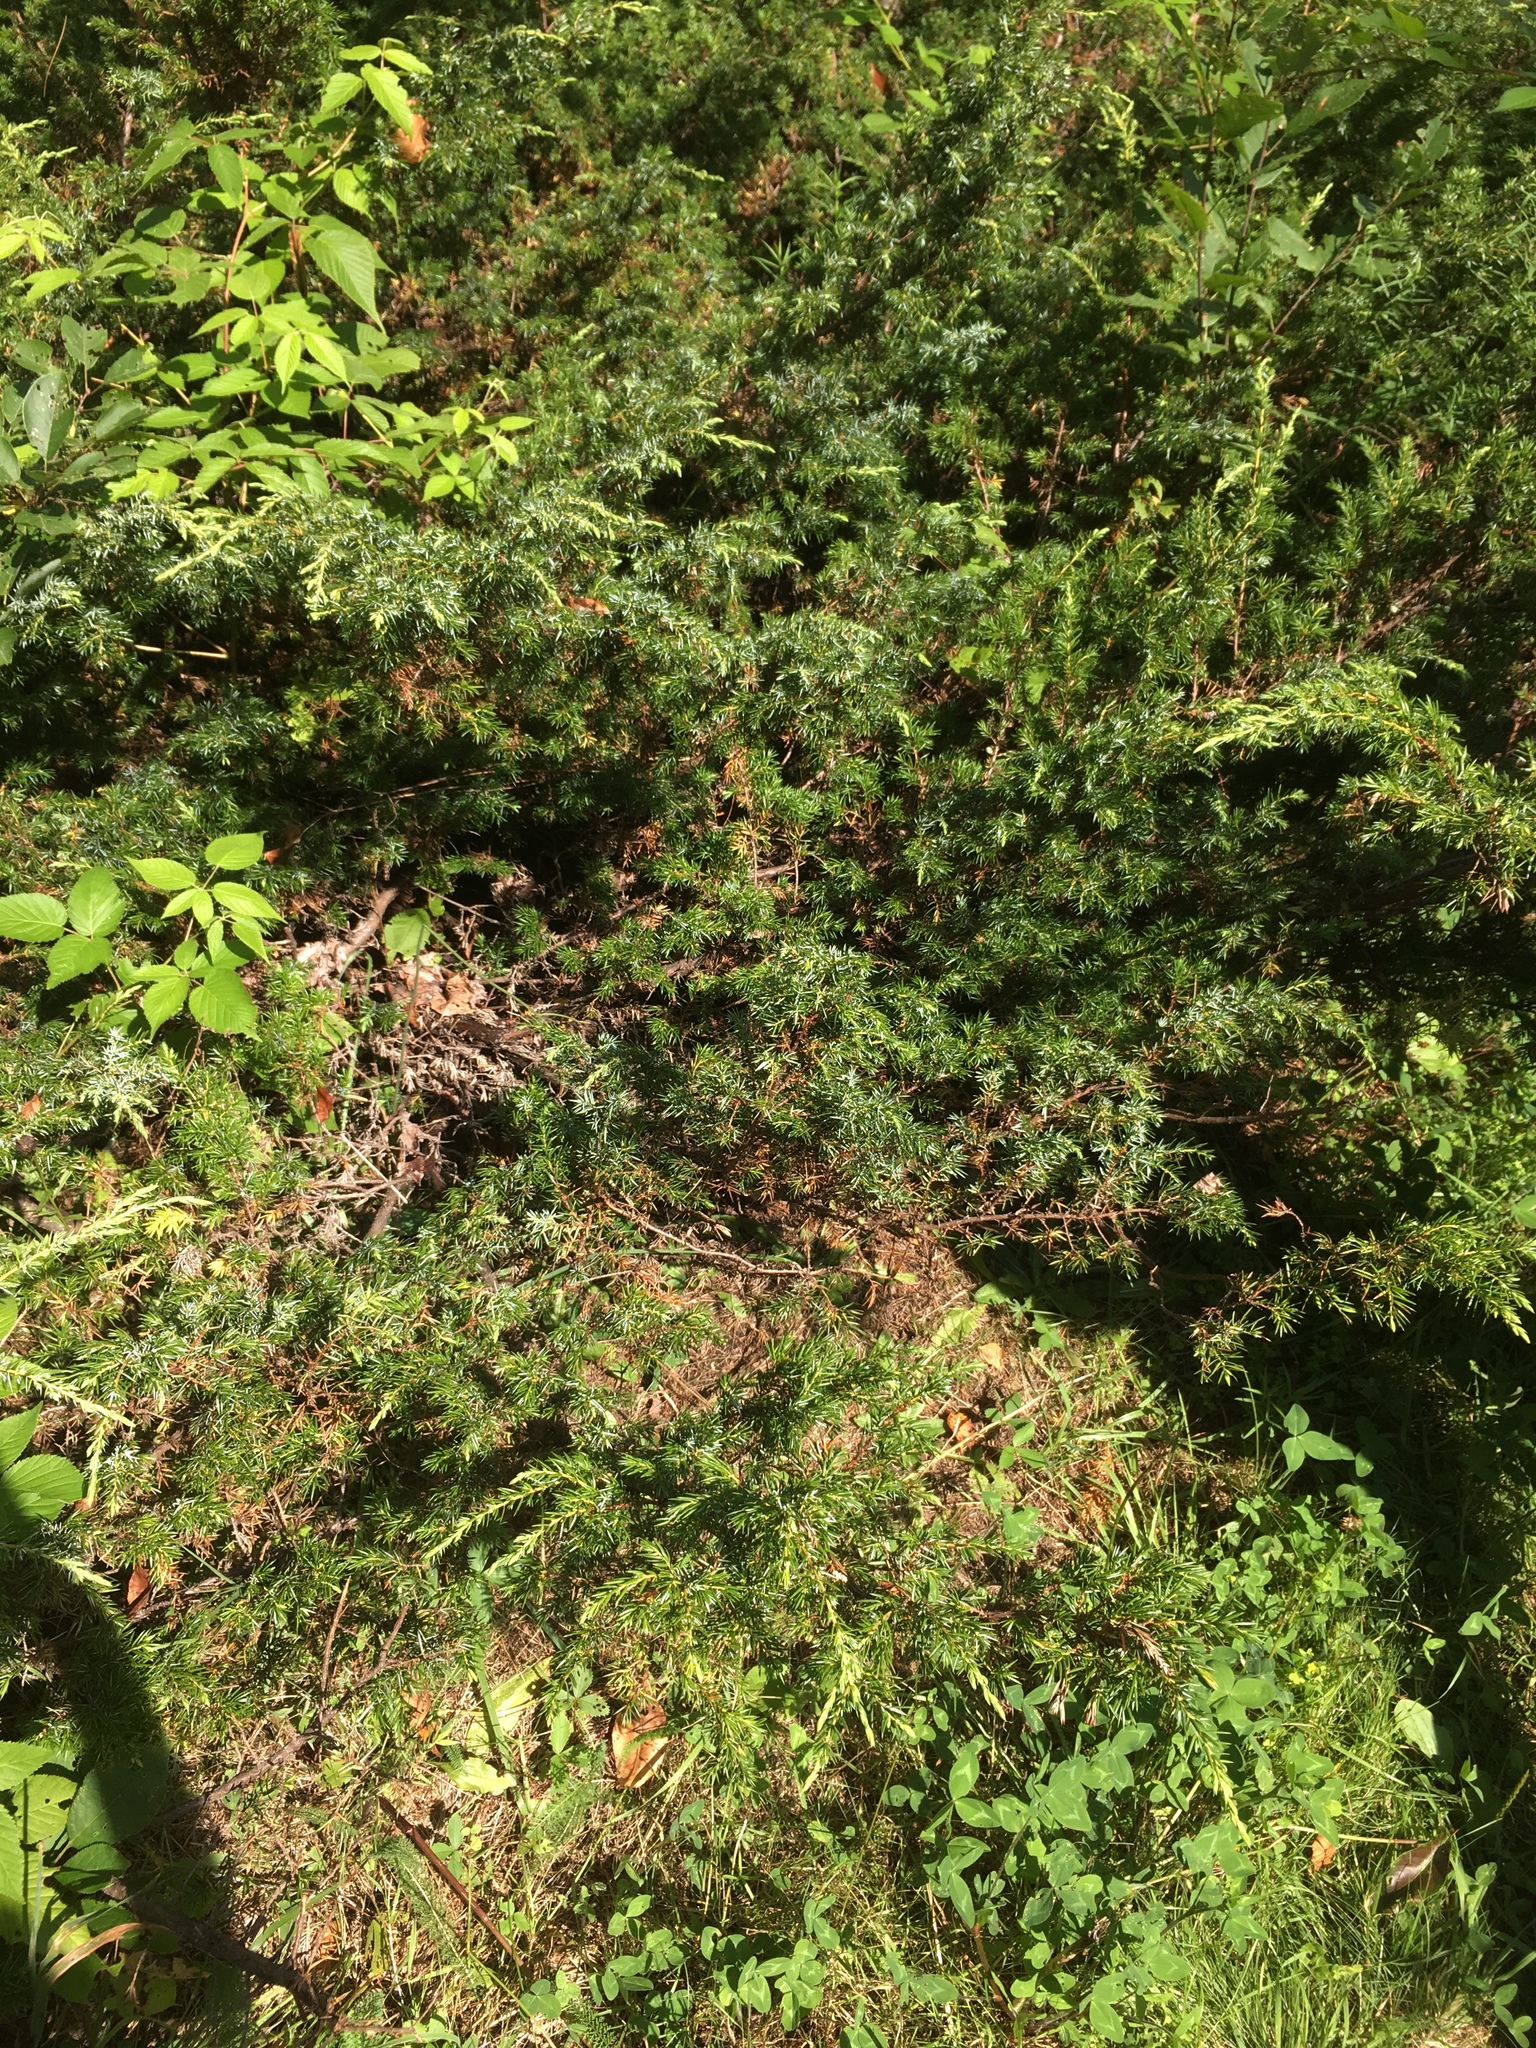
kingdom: Plantae
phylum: Tracheophyta
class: Pinopsida
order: Pinales
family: Cupressaceae
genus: Juniperus
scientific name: Juniperus communis
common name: Common juniper
